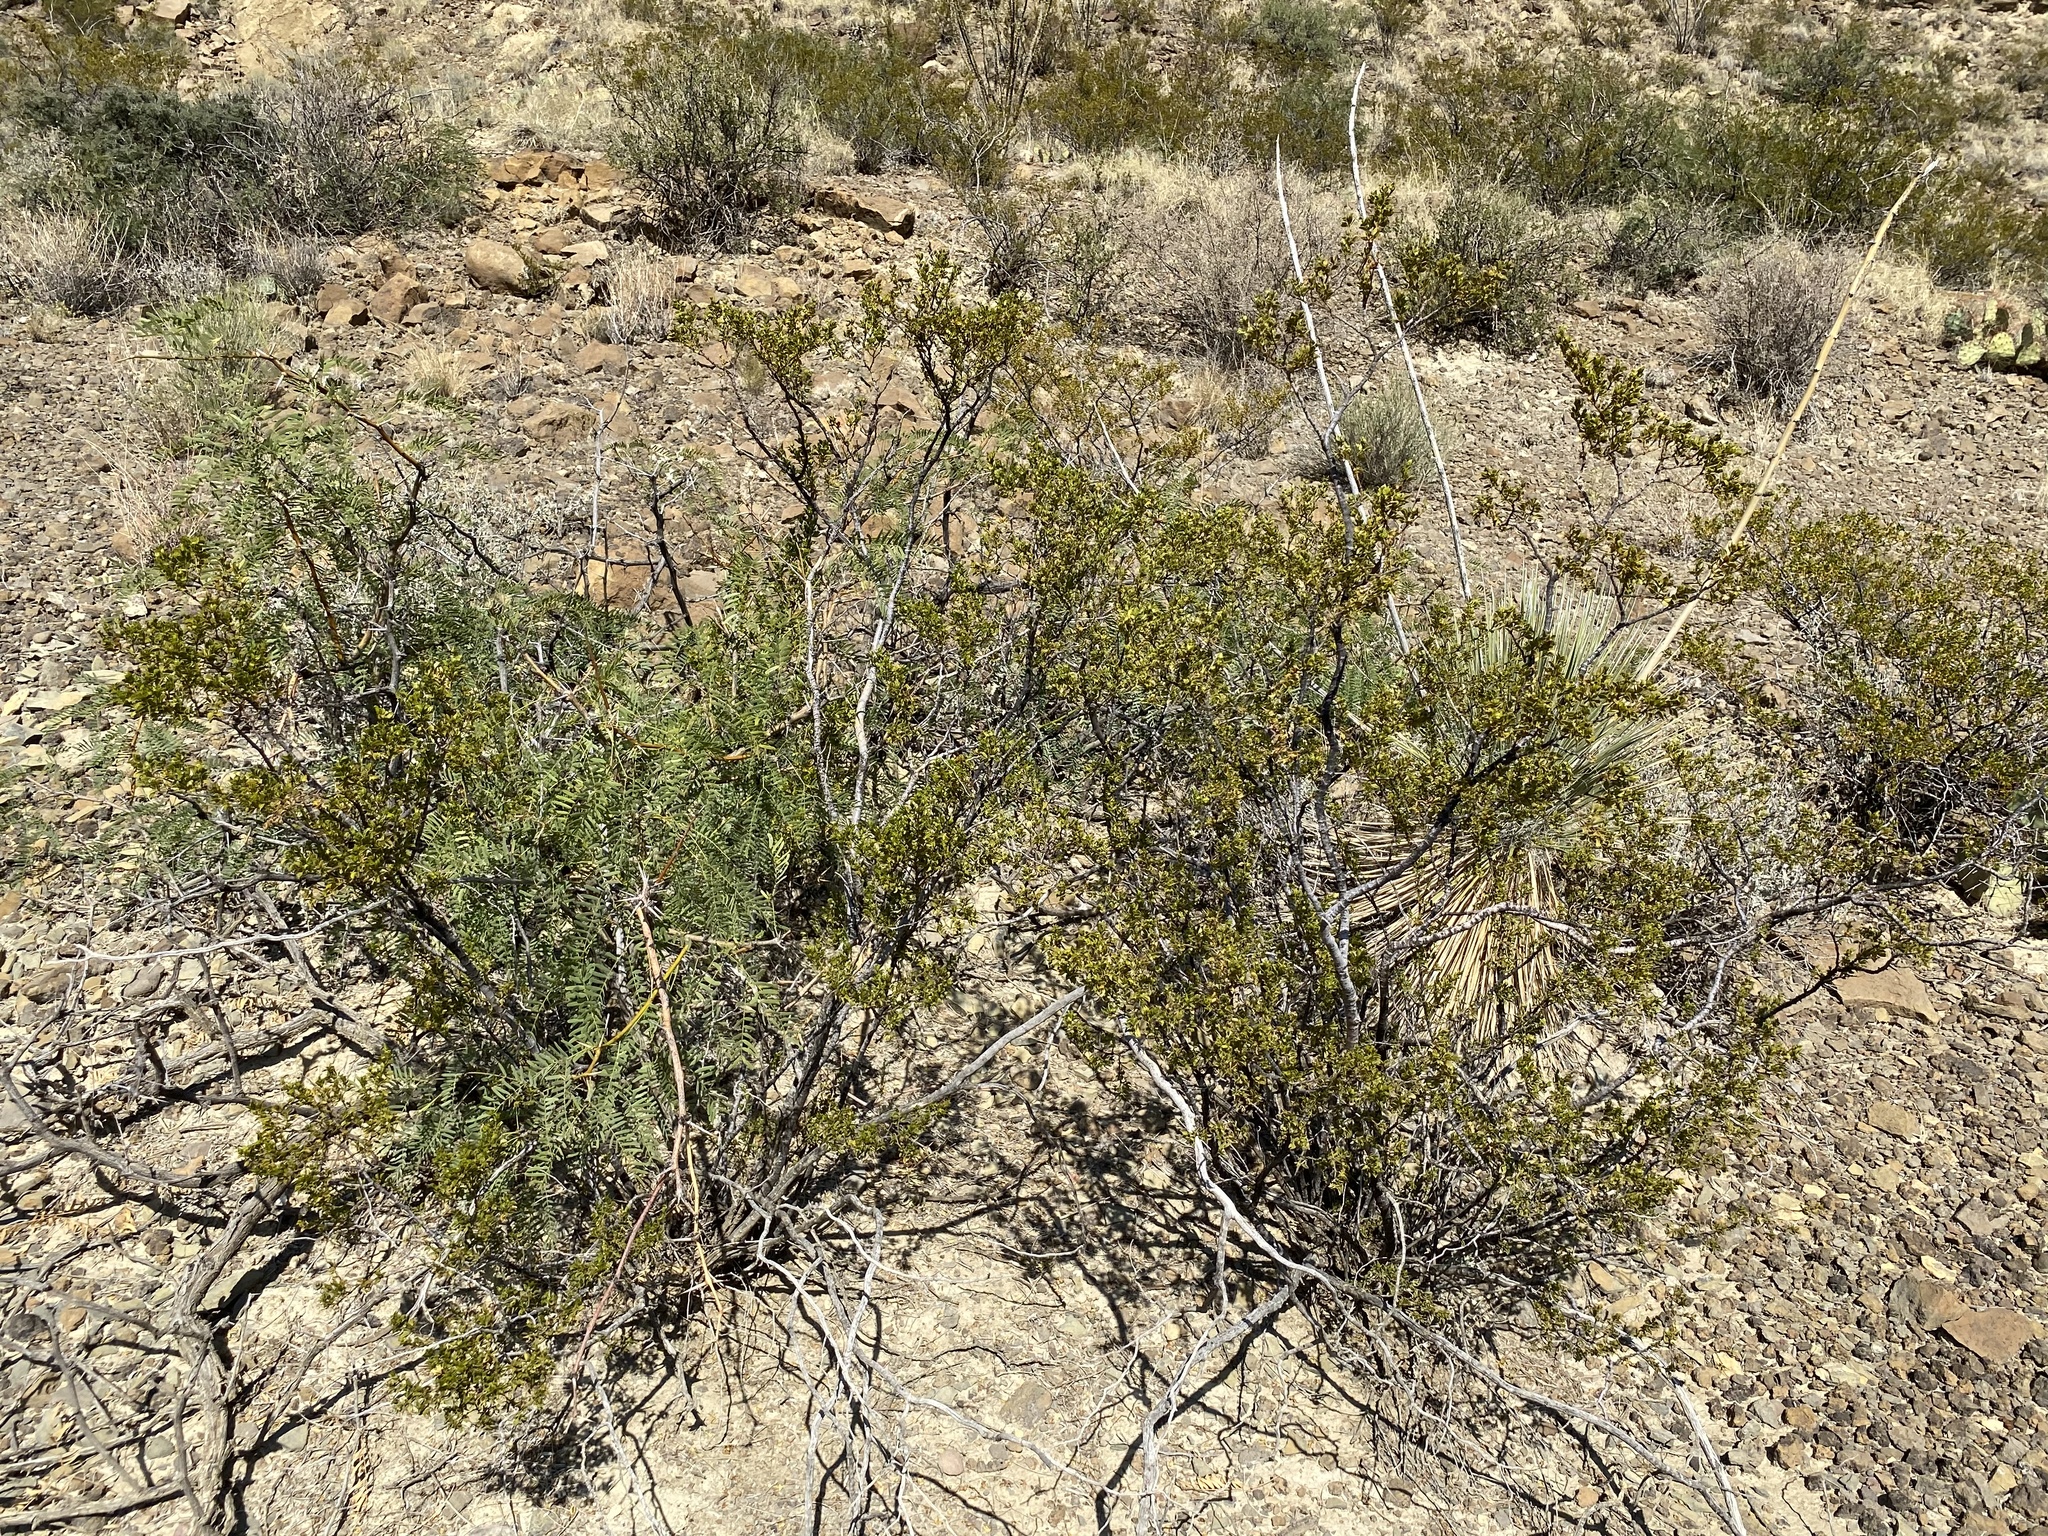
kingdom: Plantae
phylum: Tracheophyta
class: Magnoliopsida
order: Zygophyllales
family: Zygophyllaceae
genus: Larrea
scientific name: Larrea tridentata
